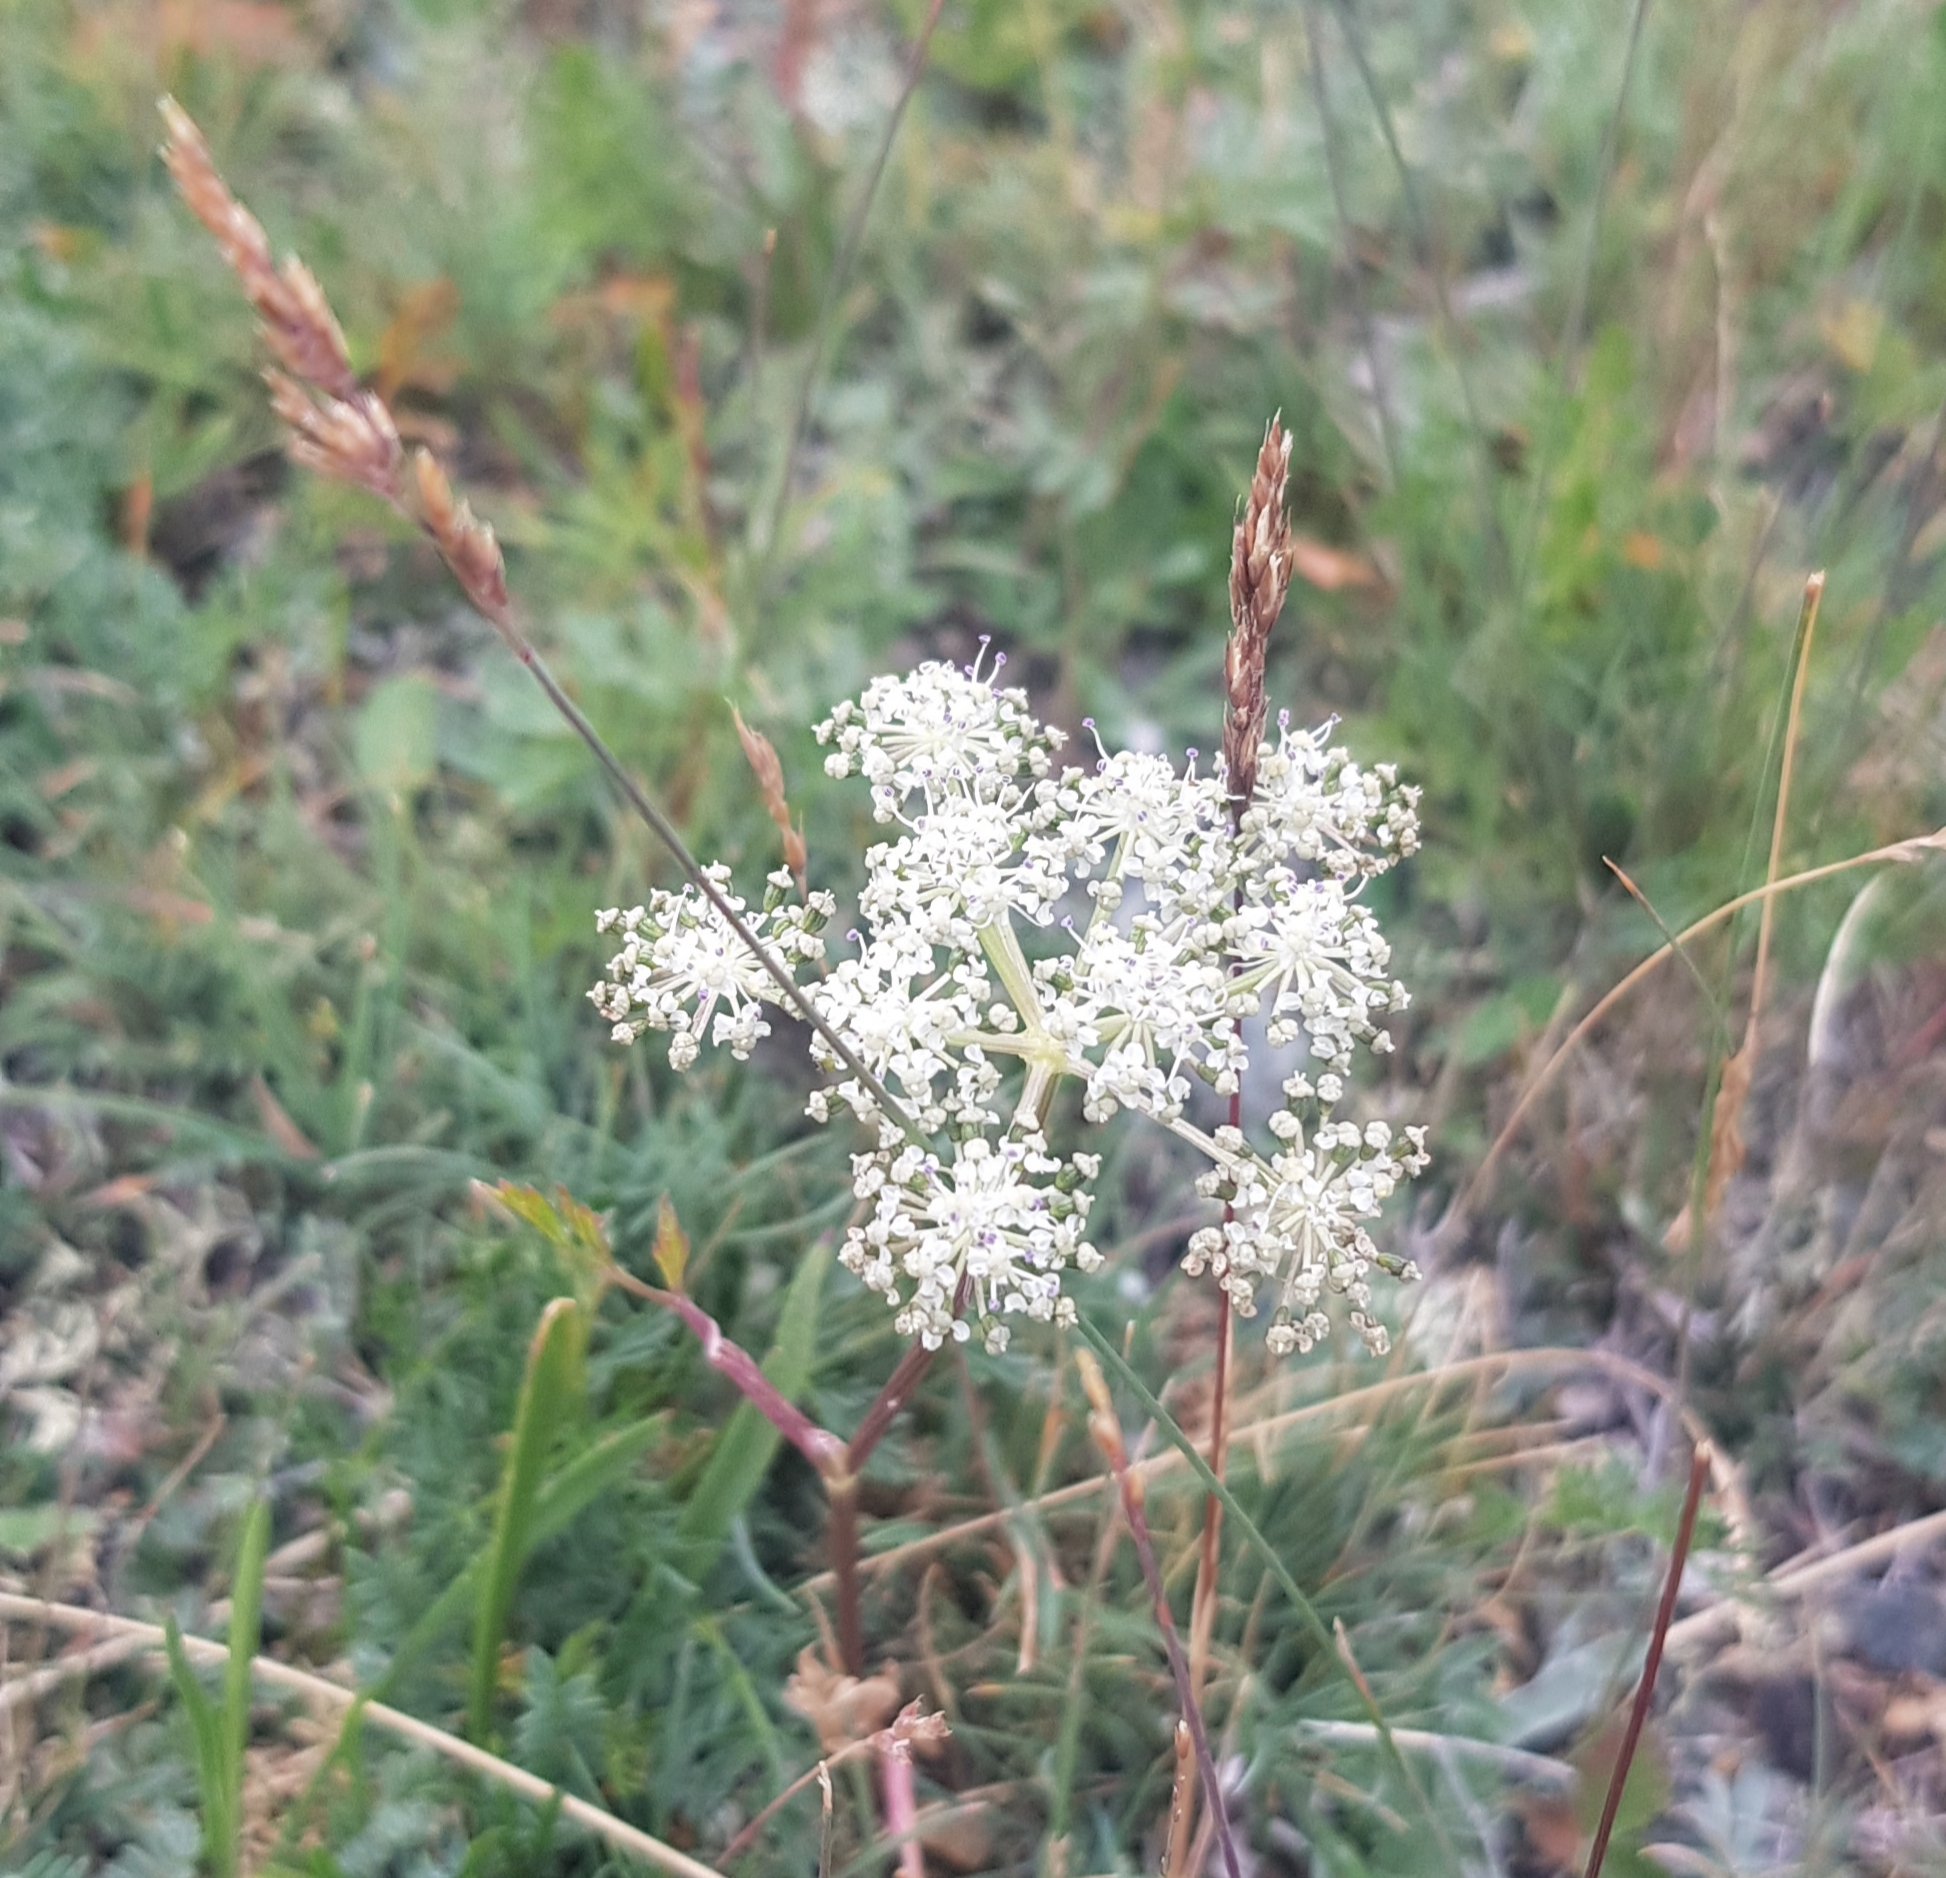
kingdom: Plantae
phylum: Tracheophyta
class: Magnoliopsida
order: Apiales
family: Apiaceae
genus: Kitagawia
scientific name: Kitagawia baicalensis
